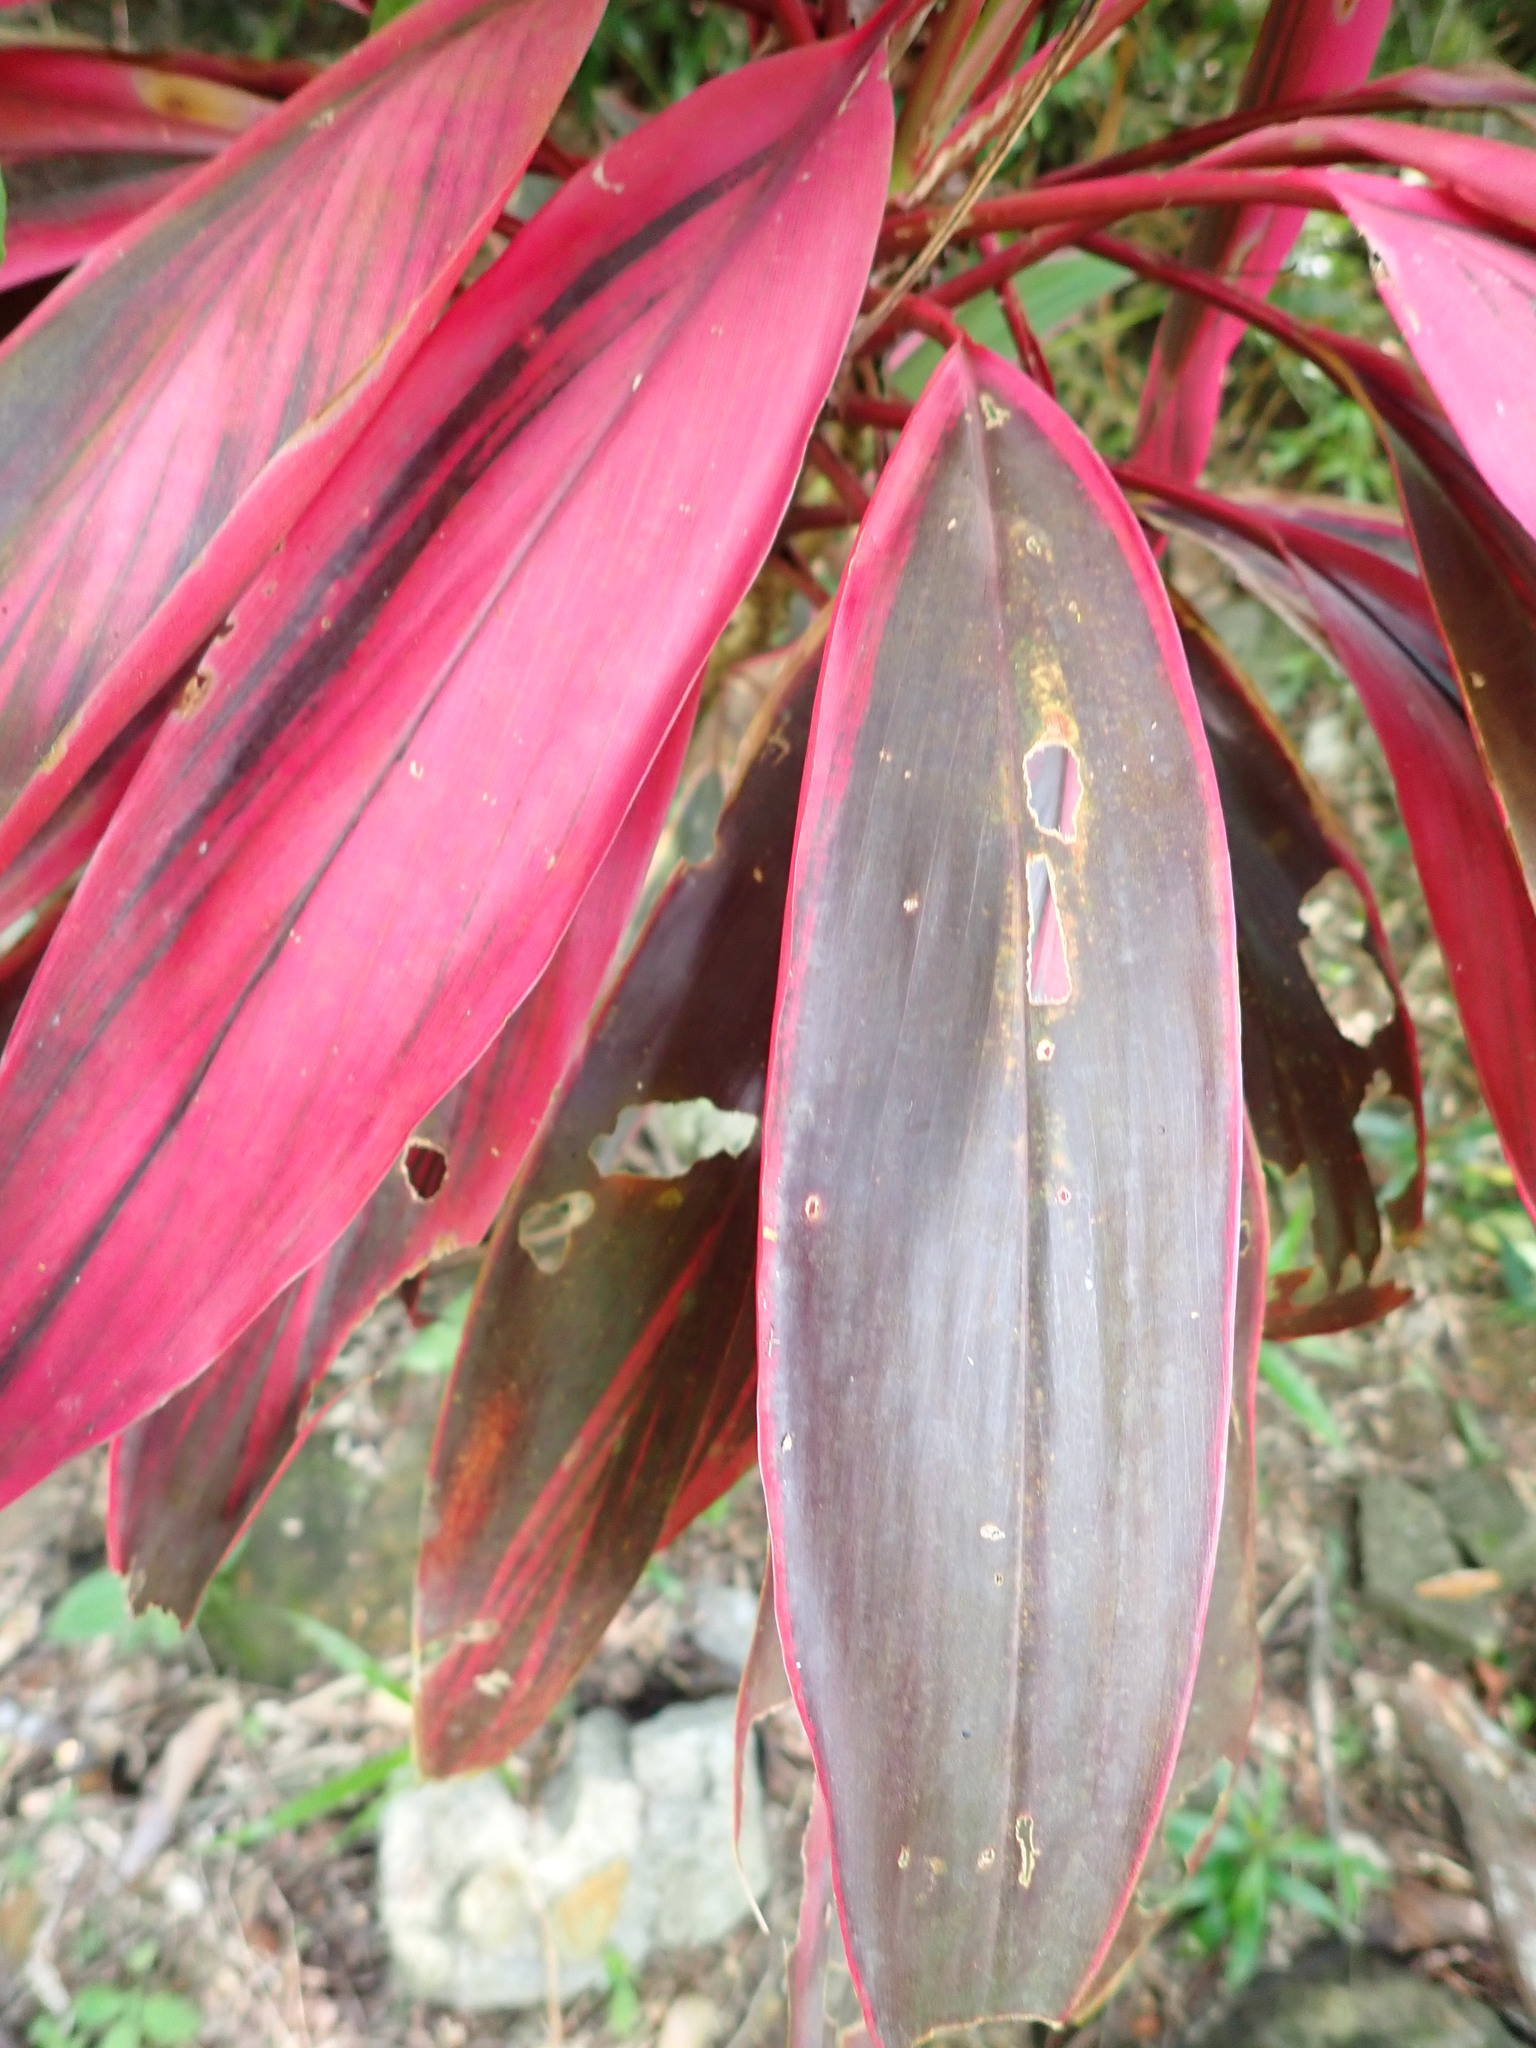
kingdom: Plantae
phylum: Tracheophyta
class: Liliopsida
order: Asparagales
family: Asparagaceae
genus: Cordyline
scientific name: Cordyline fruticosa
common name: Good-luck-plant
